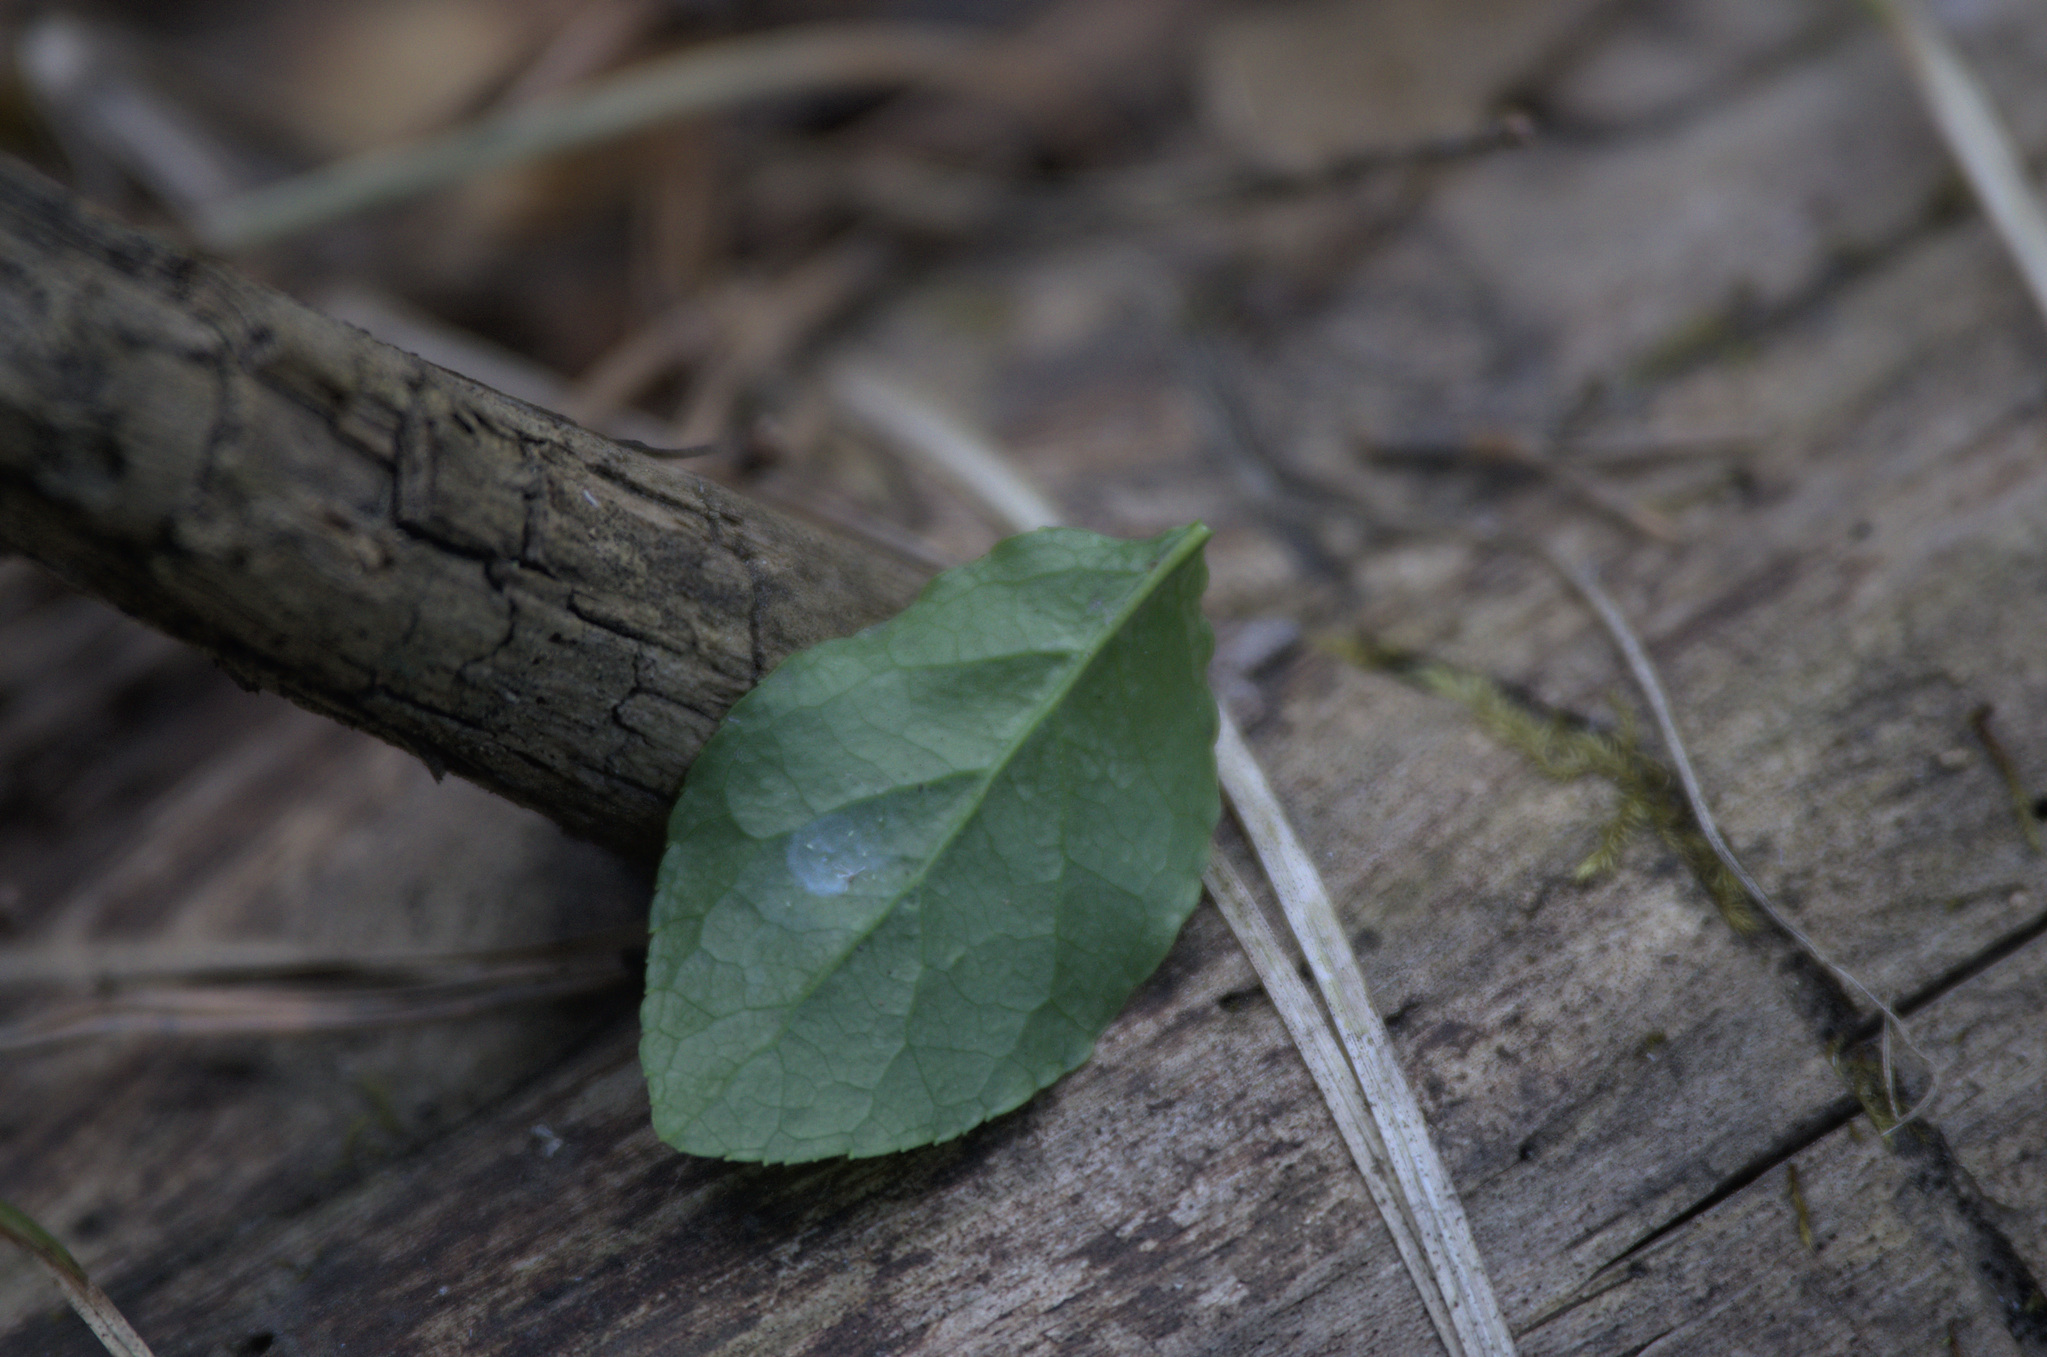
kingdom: Plantae
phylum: Tracheophyta
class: Magnoliopsida
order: Ericales
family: Ericaceae
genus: Orthilia
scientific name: Orthilia secunda
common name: One-sided orthilia
